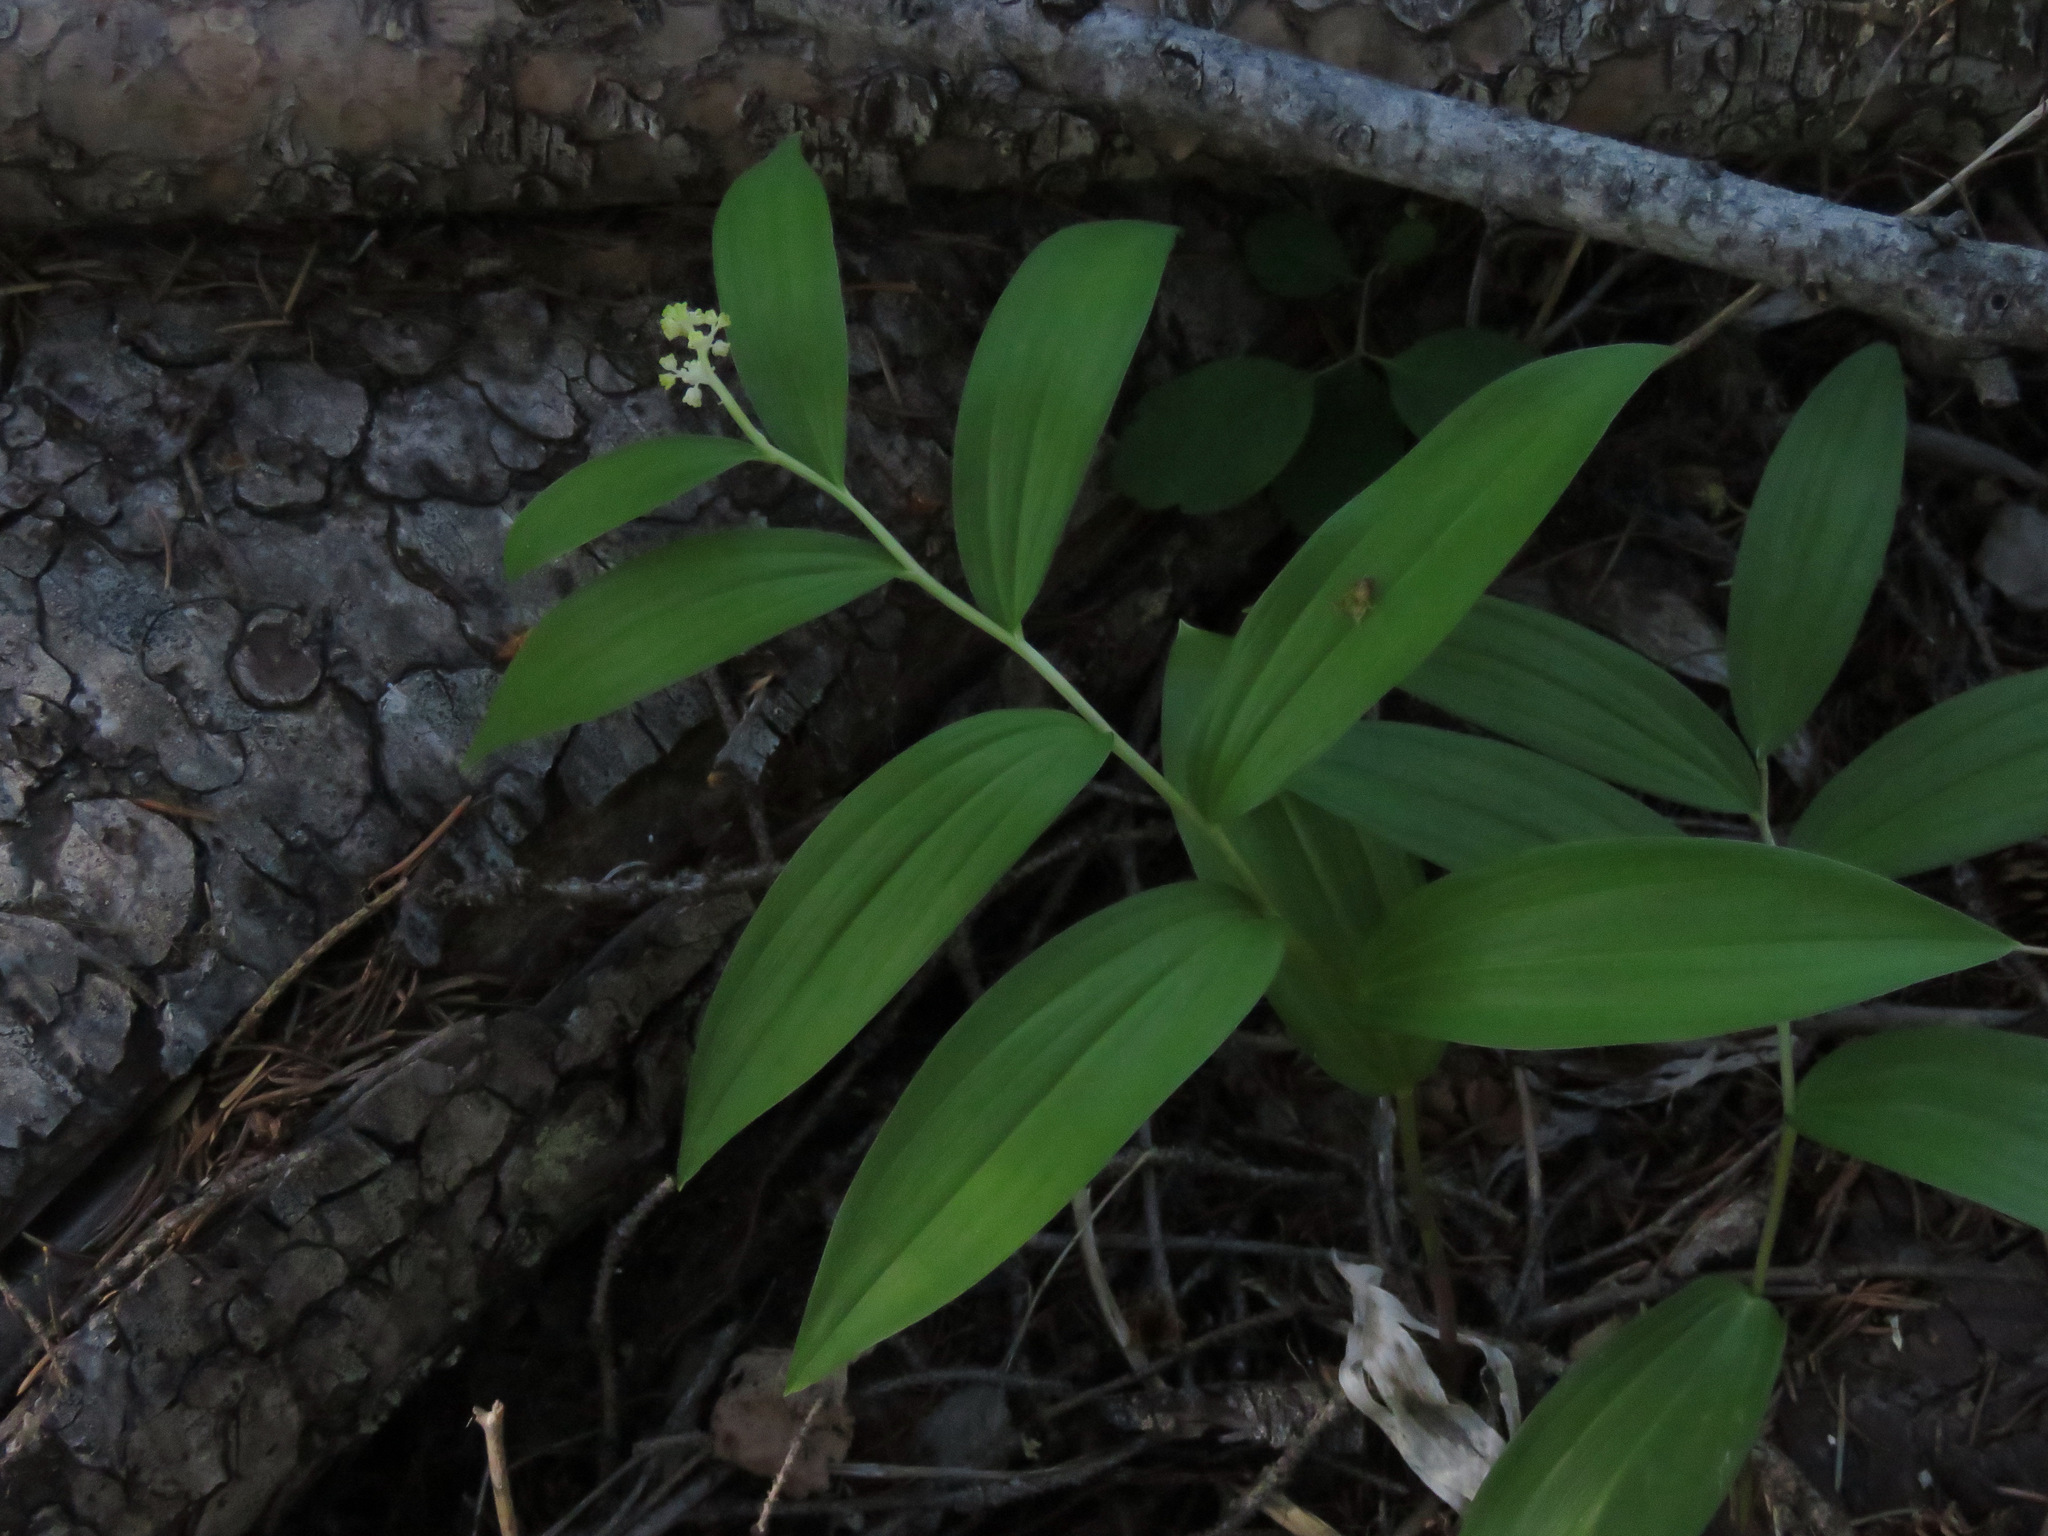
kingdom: Plantae
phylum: Tracheophyta
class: Liliopsida
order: Asparagales
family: Asparagaceae
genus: Maianthemum
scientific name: Maianthemum racemosum
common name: False spikenard
